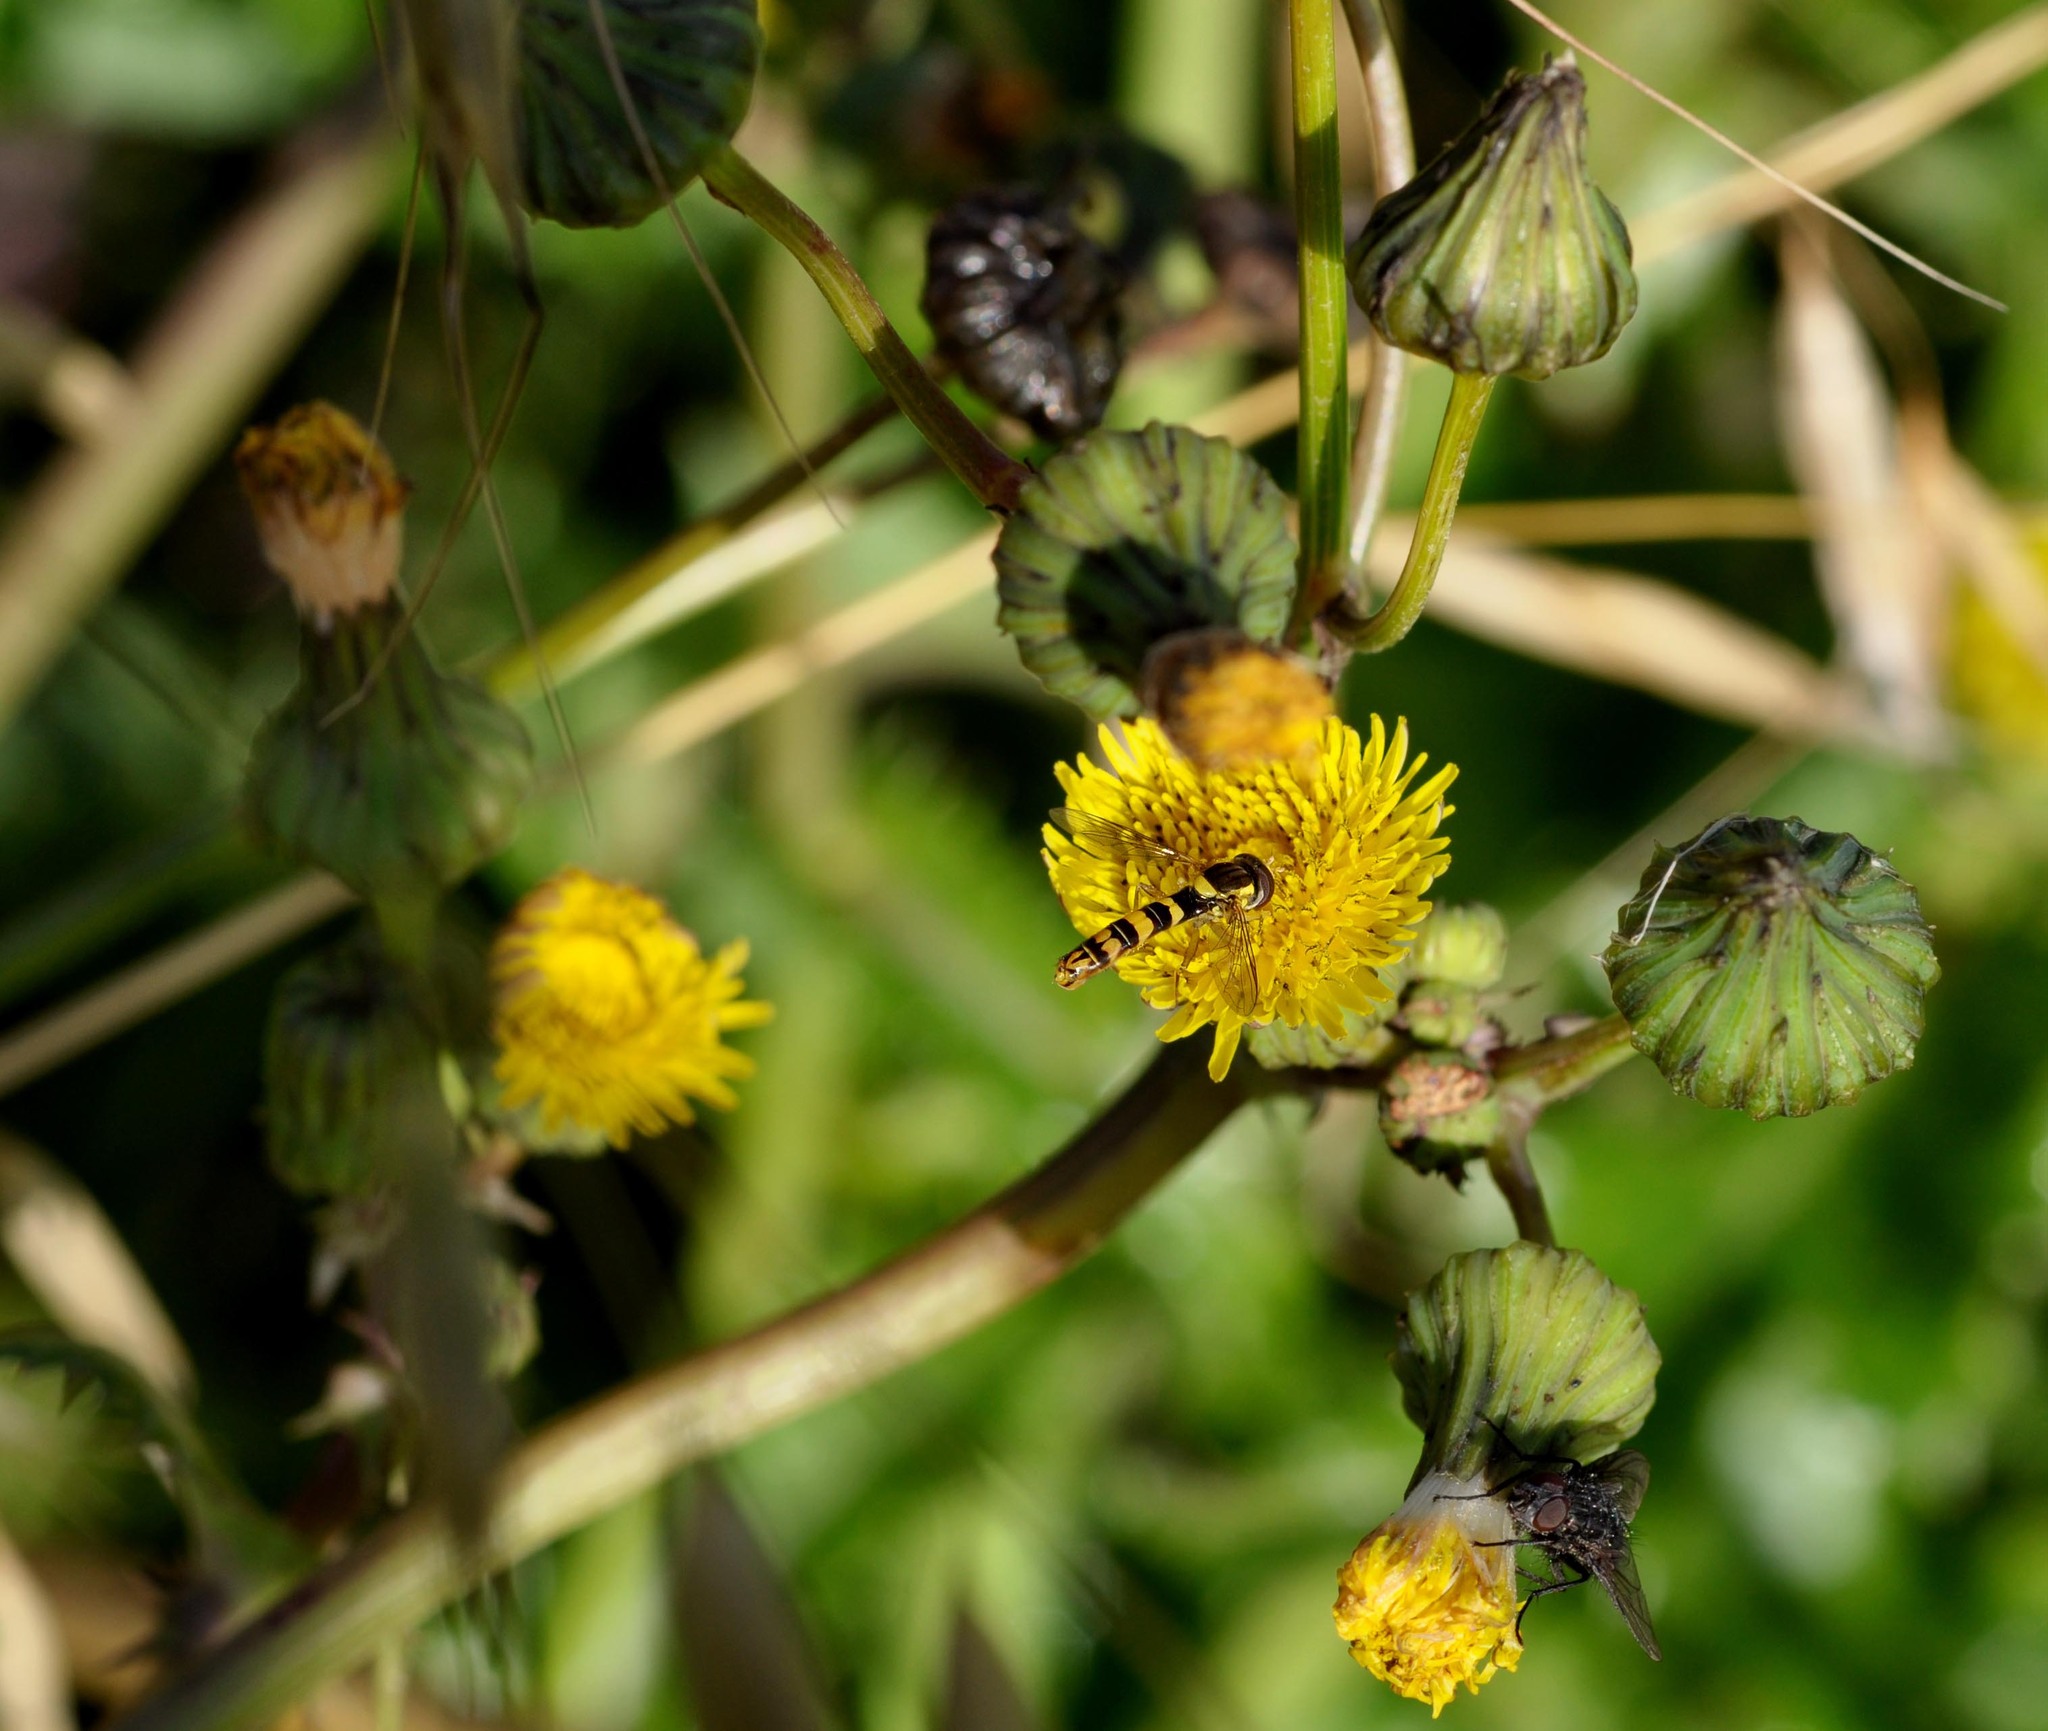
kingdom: Animalia
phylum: Arthropoda
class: Insecta
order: Diptera
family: Syrphidae
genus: Sphaerophoria
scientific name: Sphaerophoria scripta
